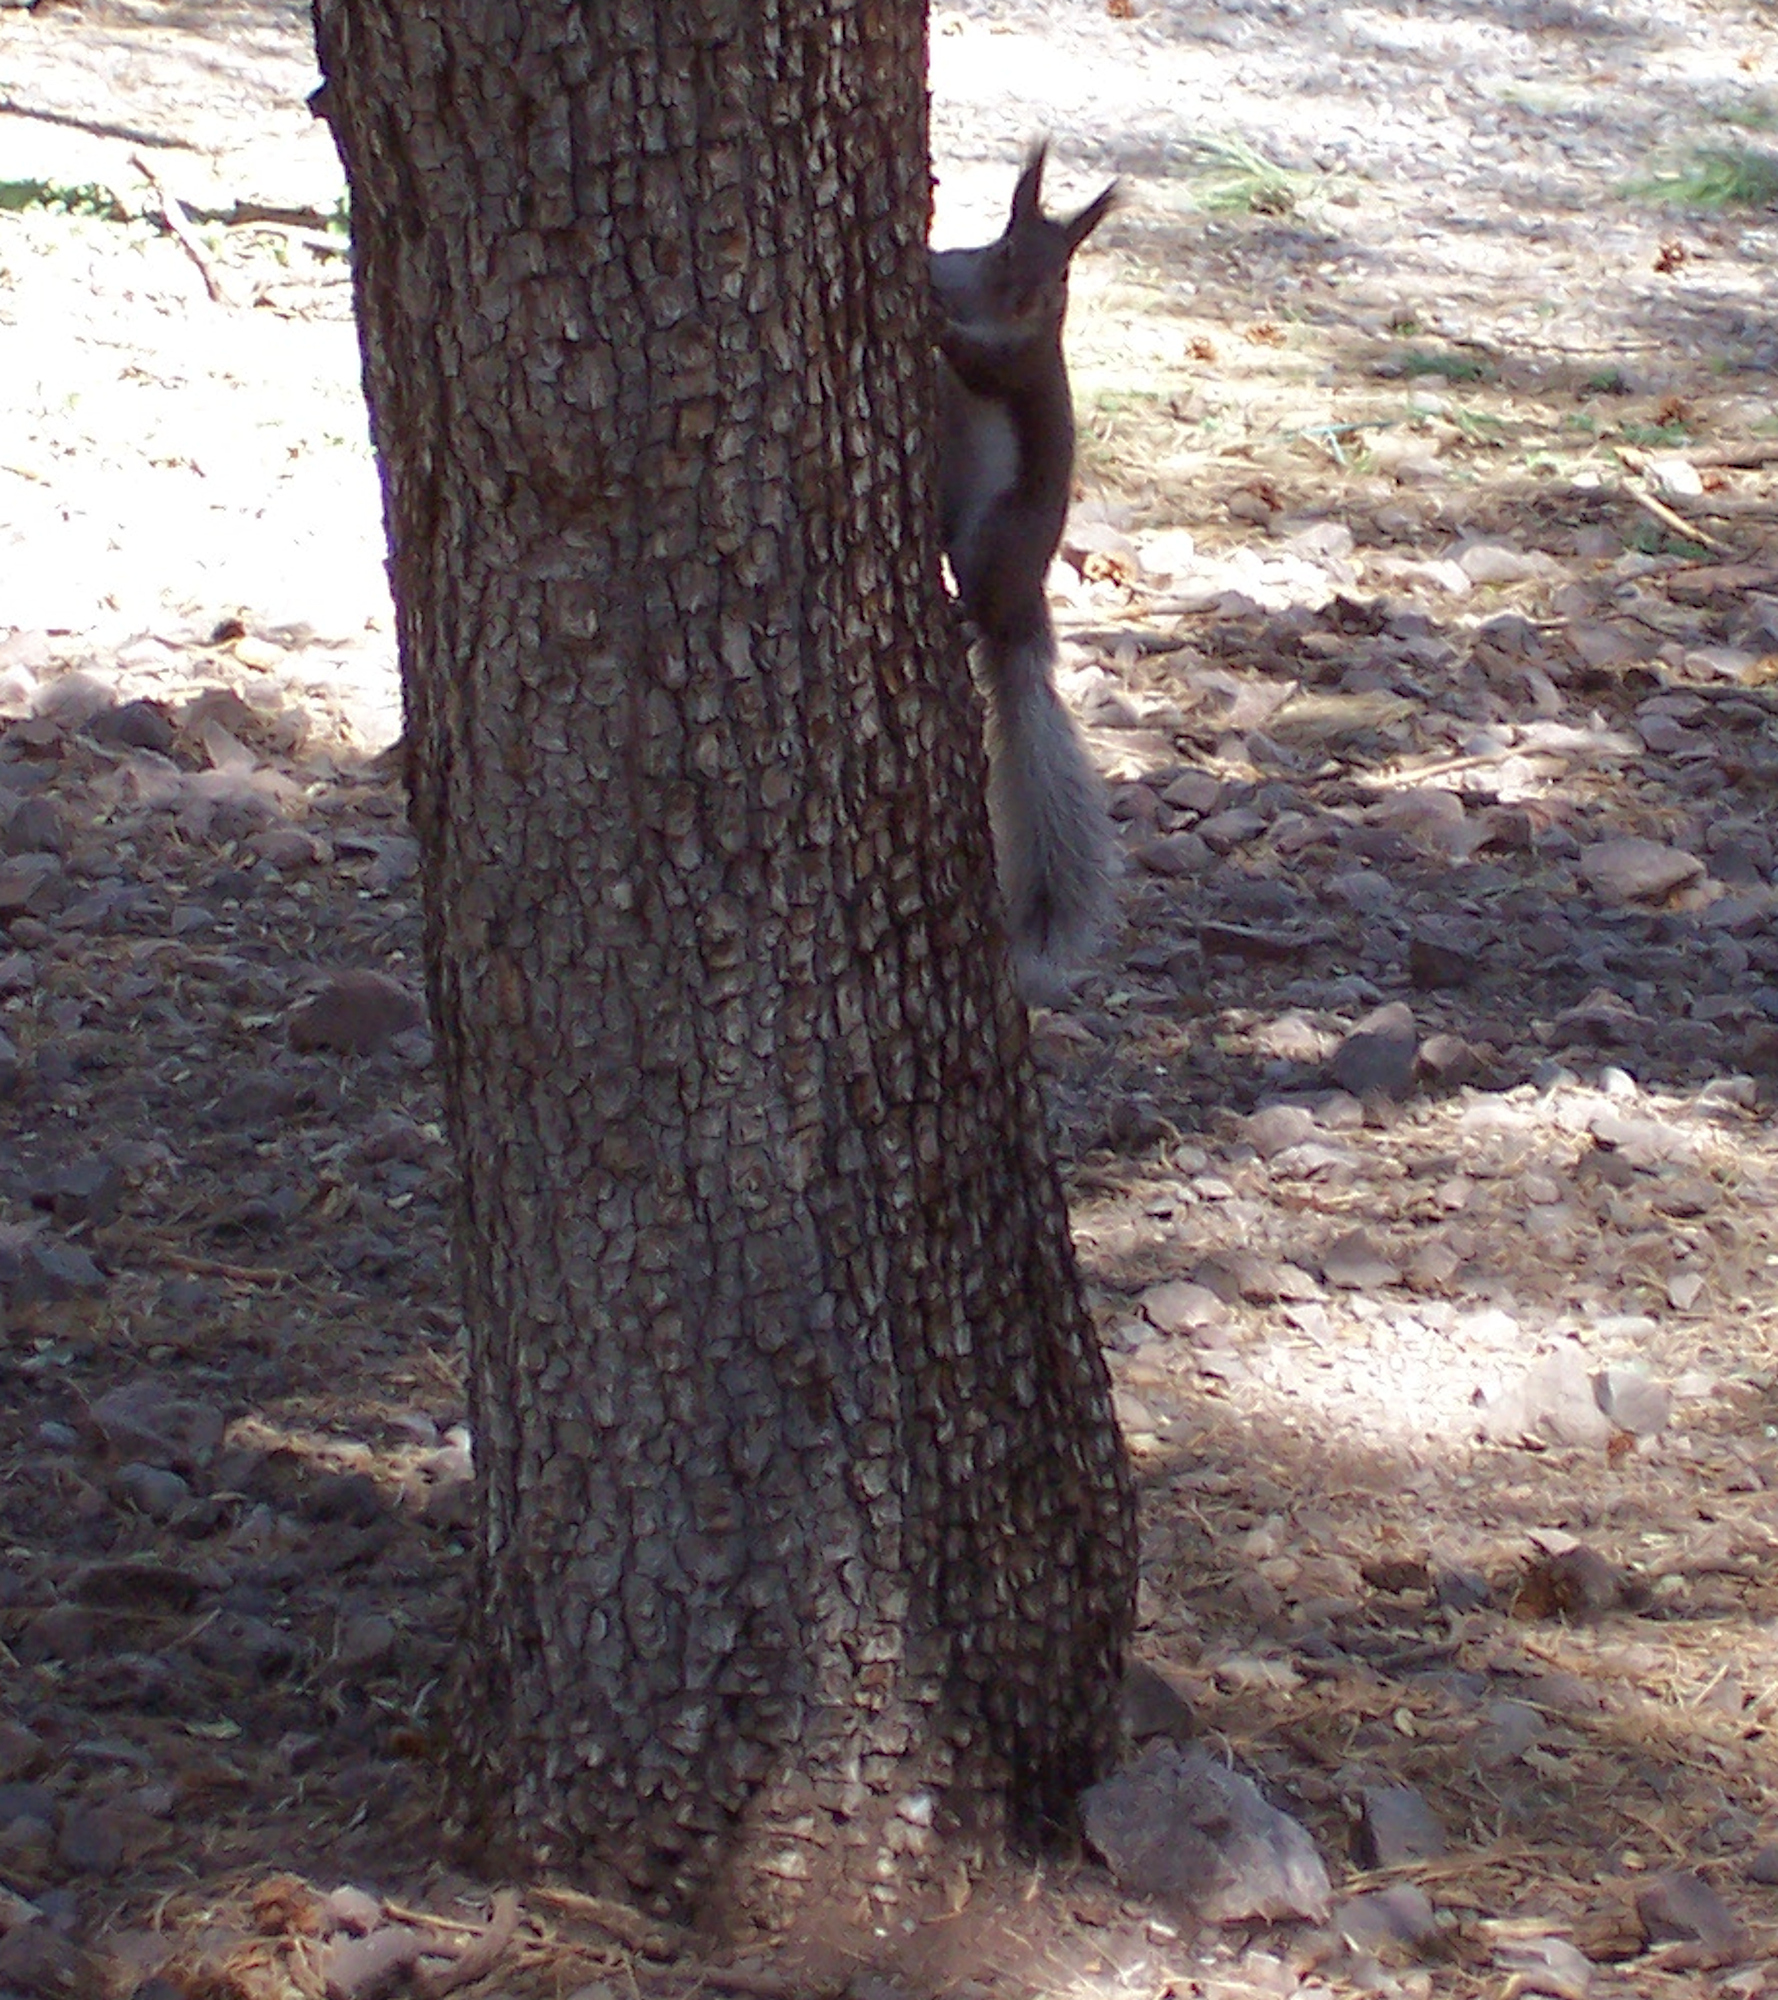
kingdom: Animalia
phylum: Chordata
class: Mammalia
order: Rodentia
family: Sciuridae
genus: Sciurus
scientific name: Sciurus aberti
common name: Abert's squirrel
